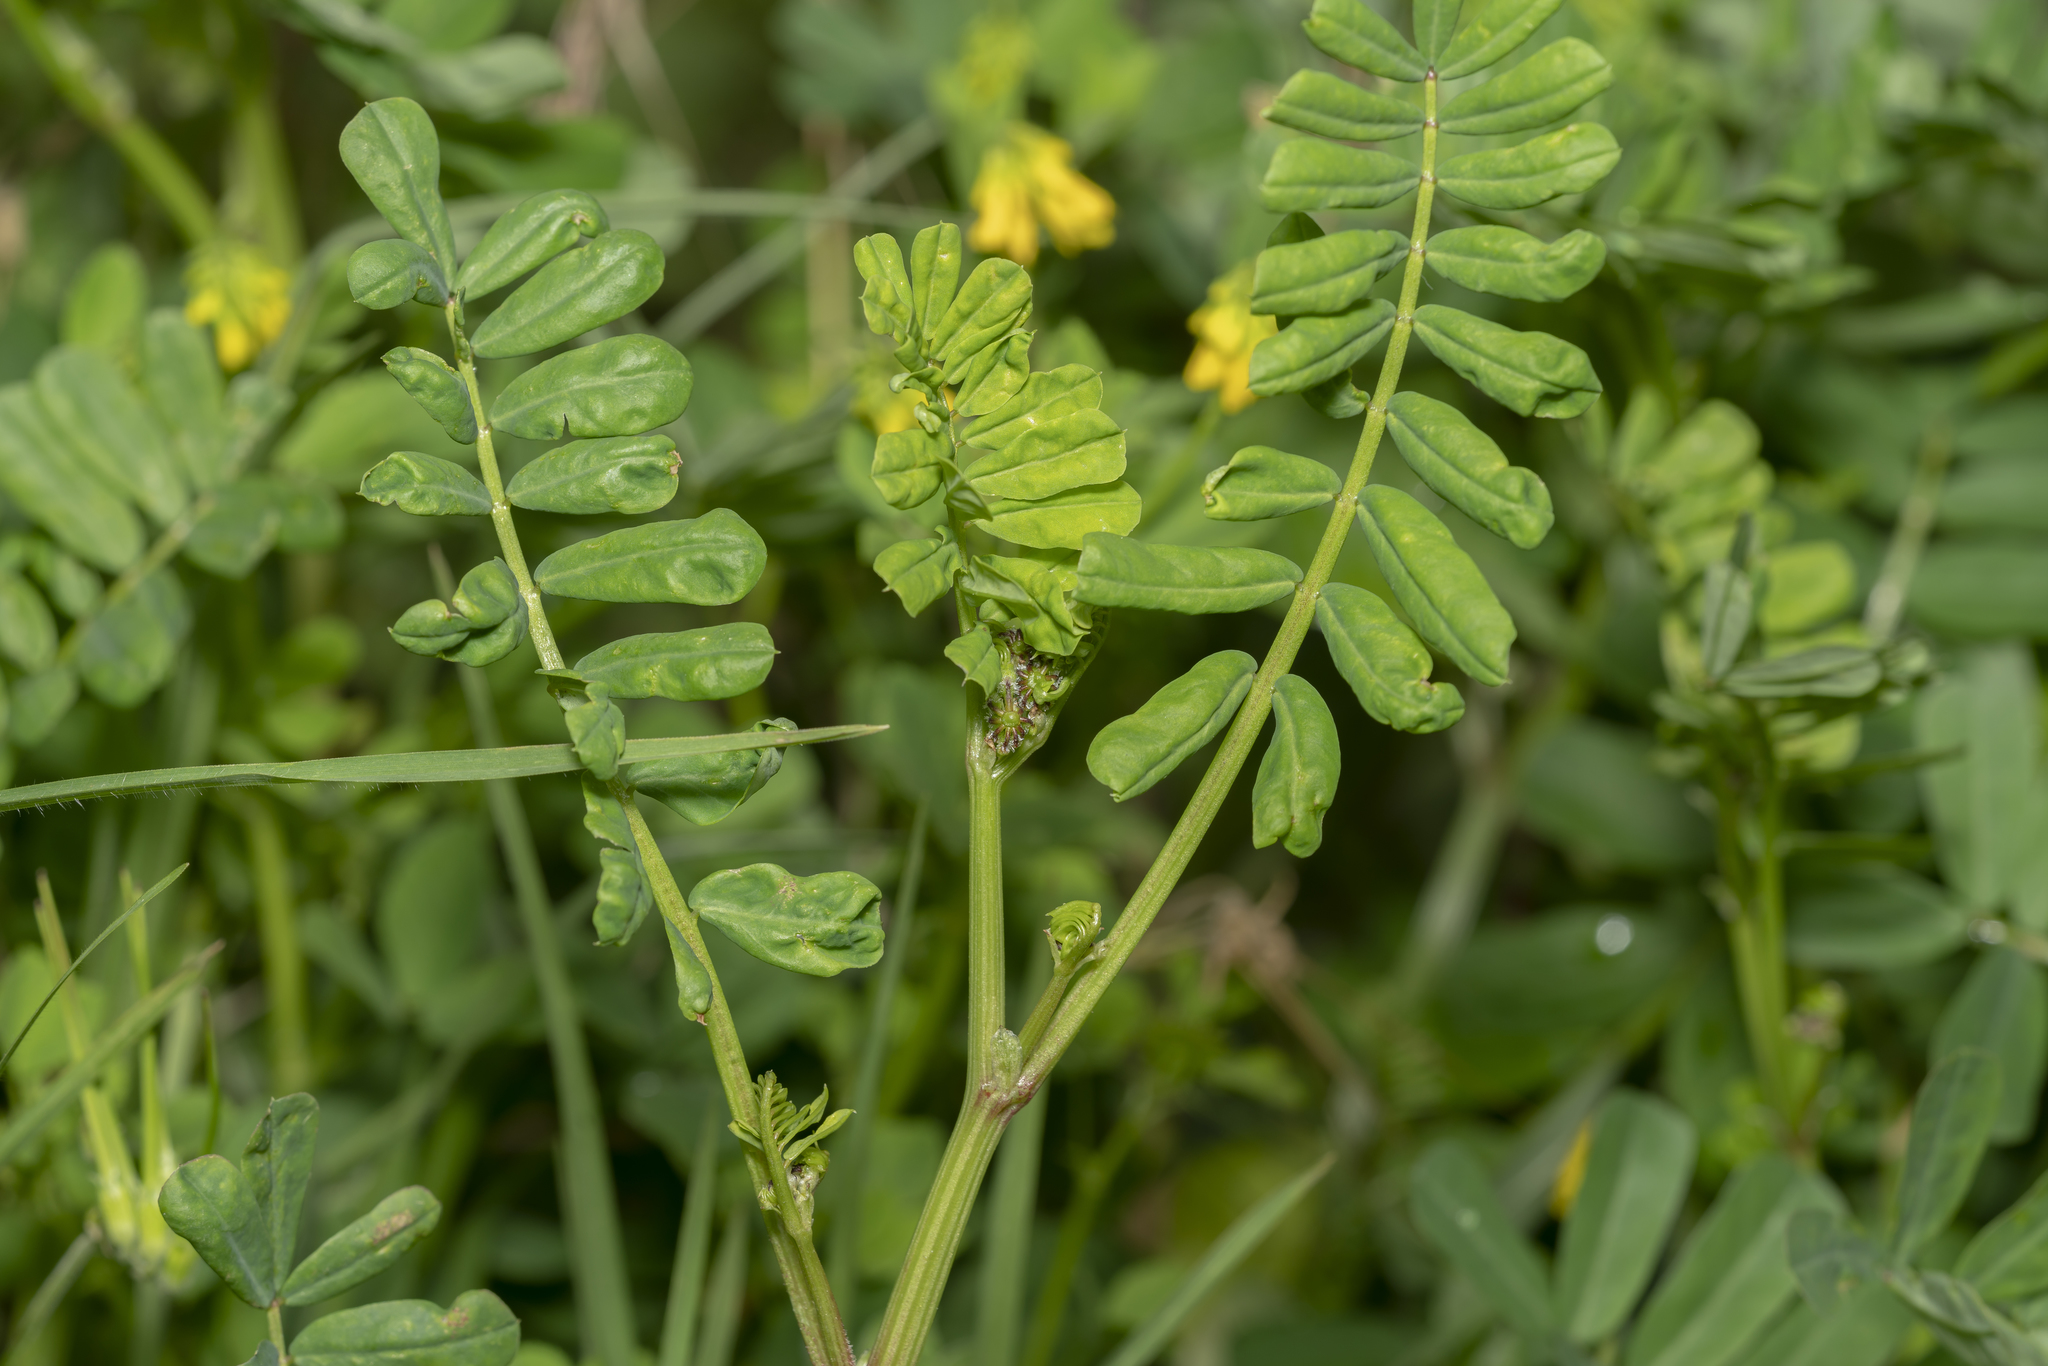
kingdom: Plantae
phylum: Tracheophyta
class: Magnoliopsida
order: Fabales
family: Fabaceae
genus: Coronilla
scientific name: Coronilla securidaca
